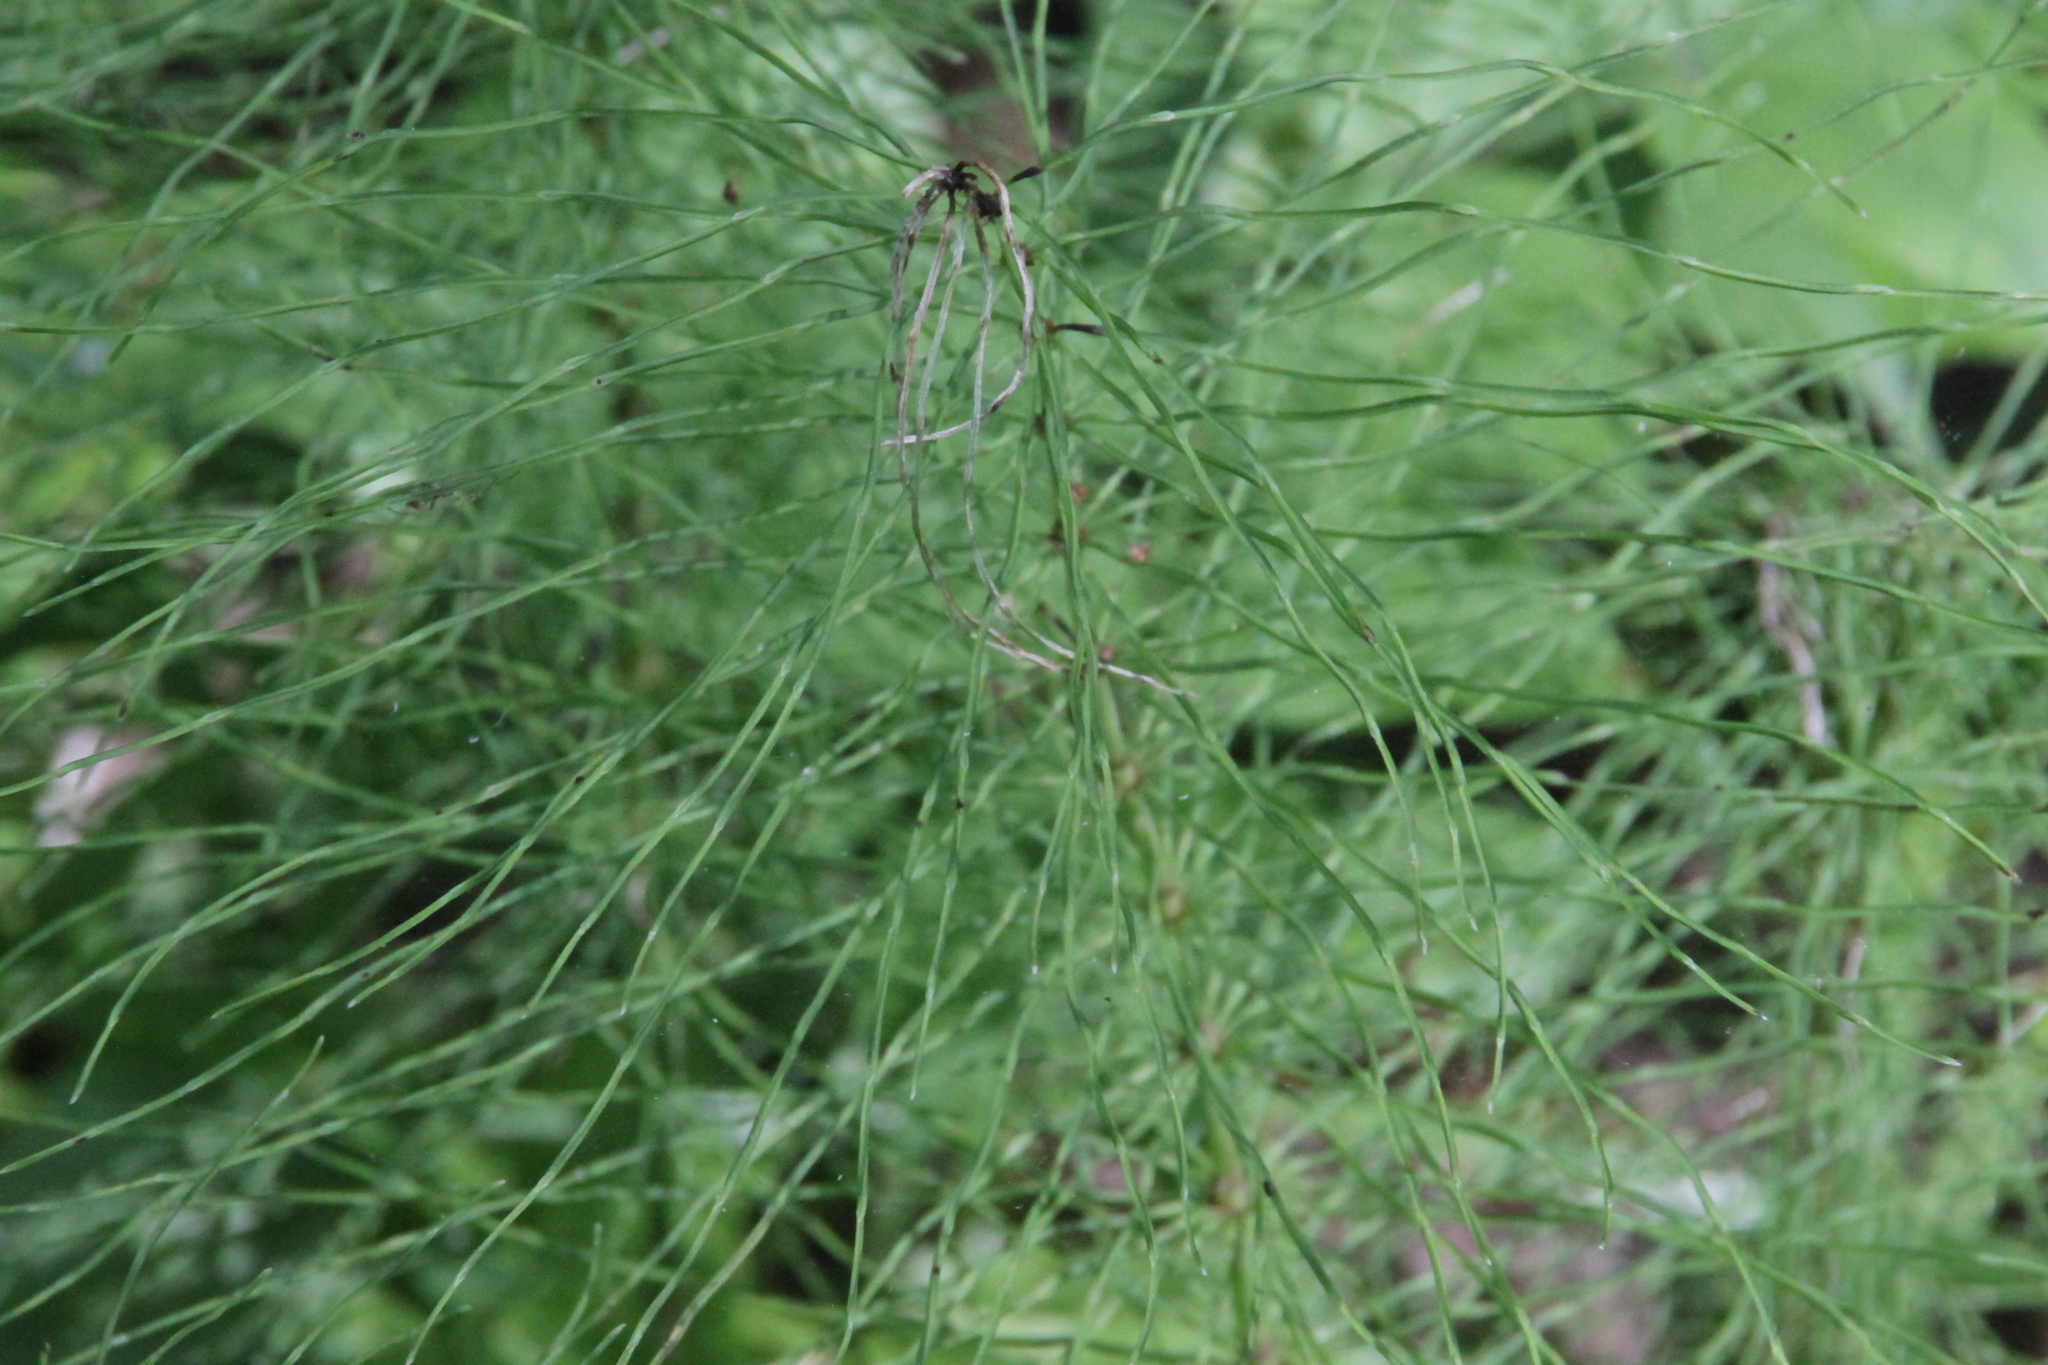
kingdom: Plantae
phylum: Tracheophyta
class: Polypodiopsida
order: Equisetales
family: Equisetaceae
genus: Equisetum
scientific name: Equisetum pratense
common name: Meadow horsetail
